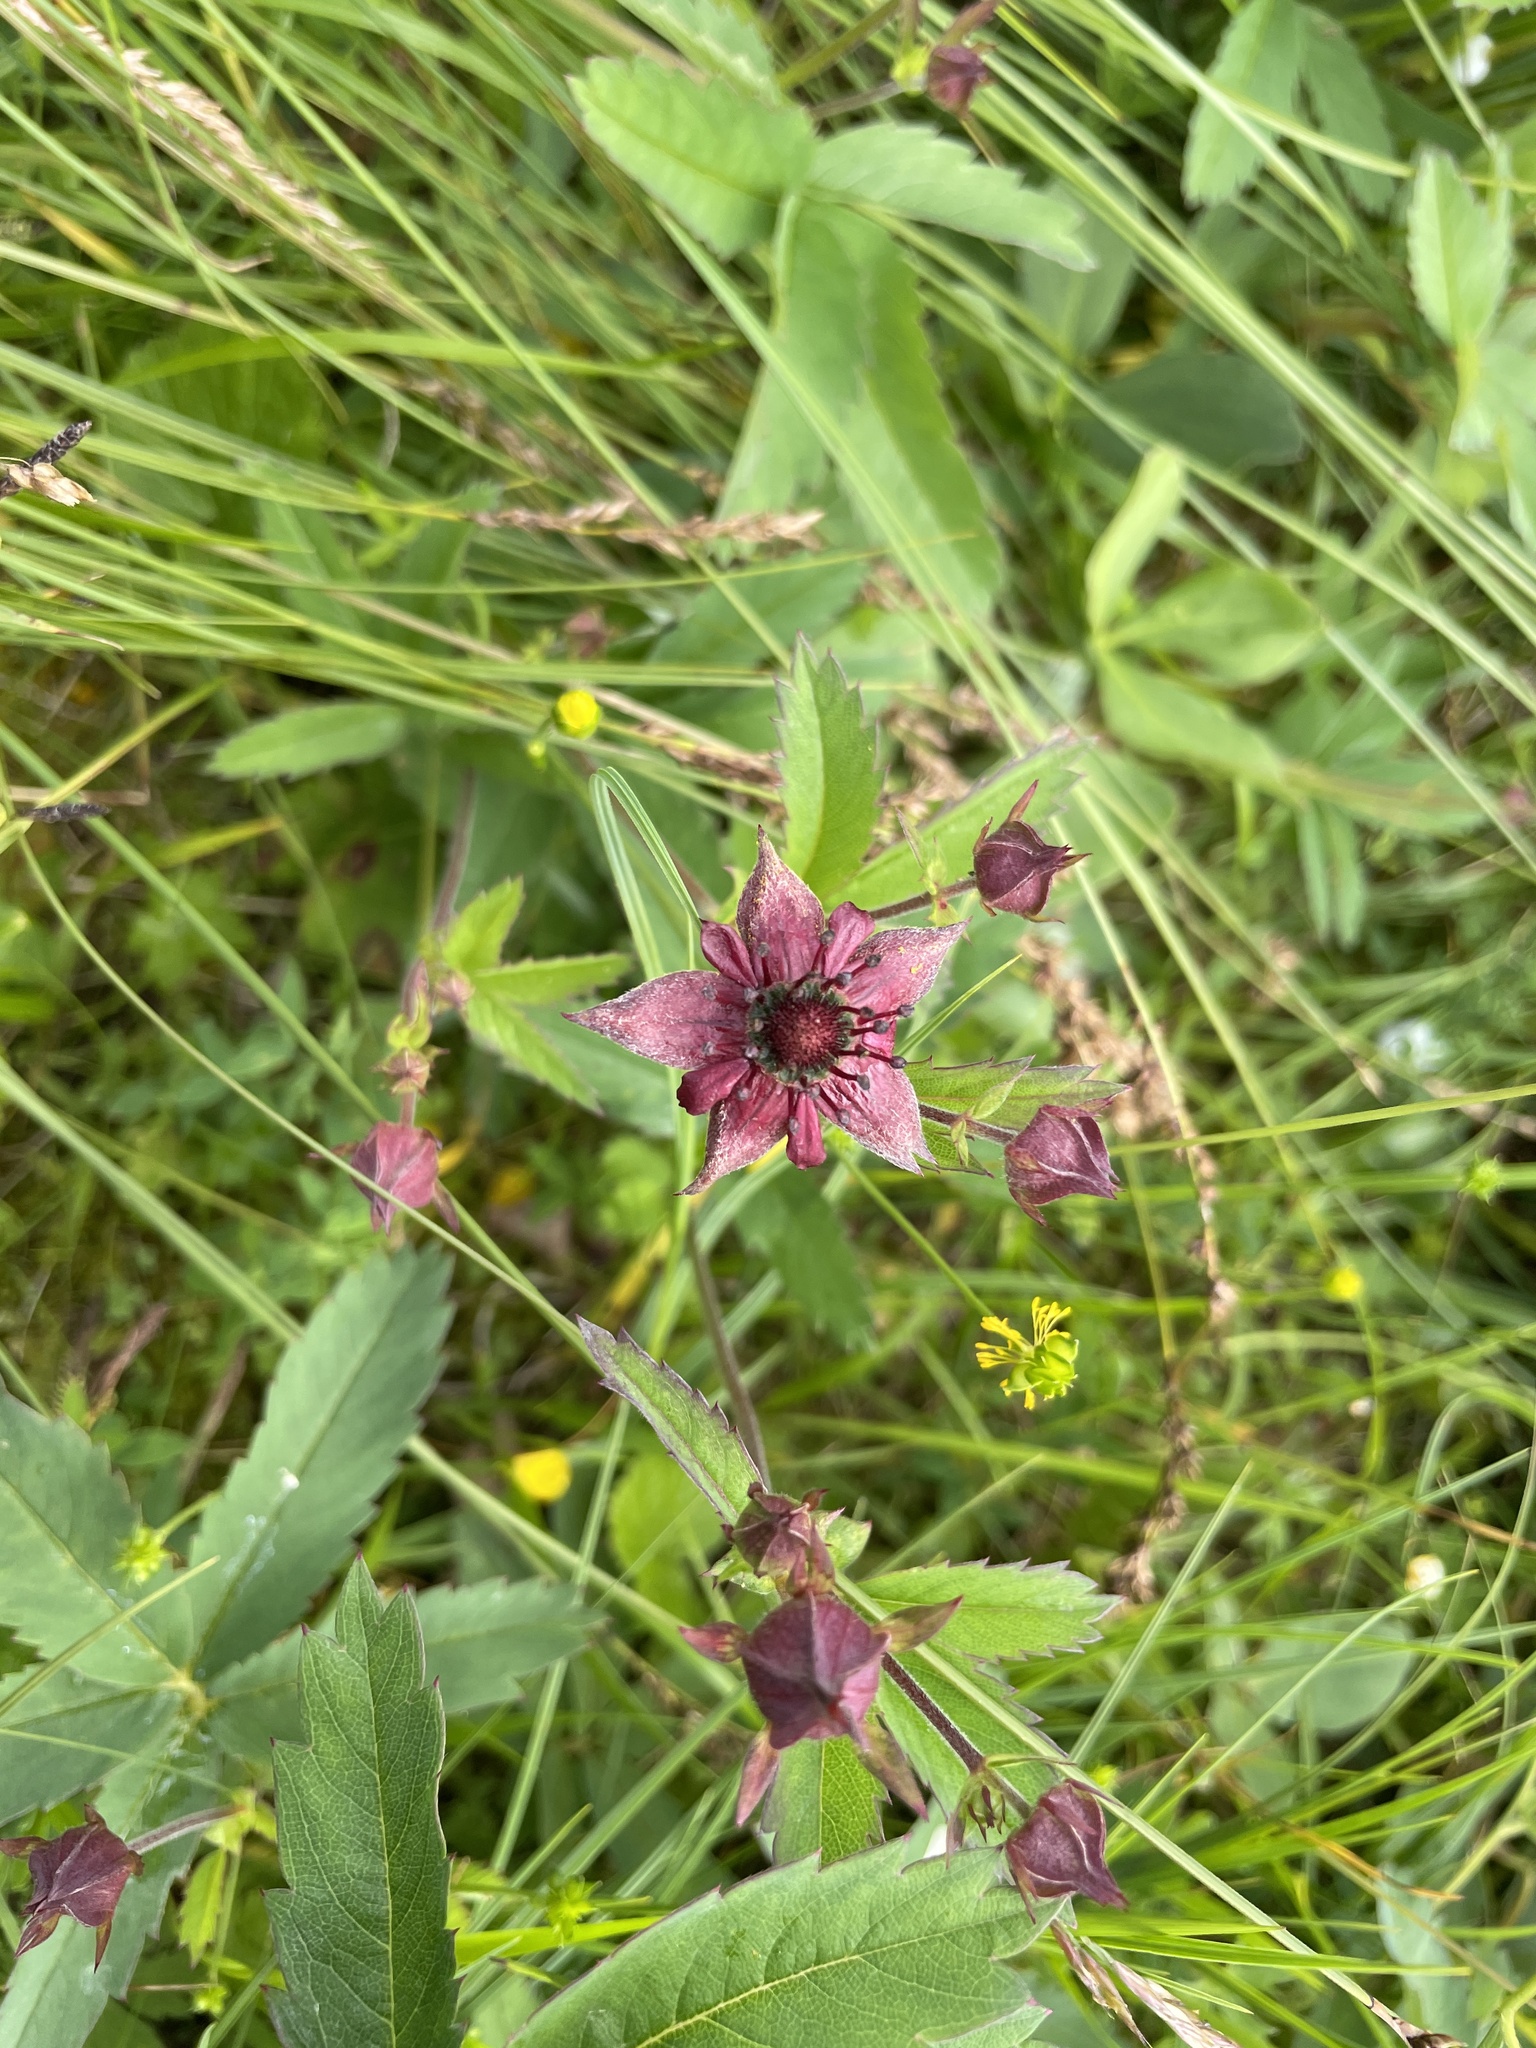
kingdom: Plantae
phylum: Tracheophyta
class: Magnoliopsida
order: Rosales
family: Rosaceae
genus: Comarum
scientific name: Comarum palustre
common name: Marsh cinquefoil
